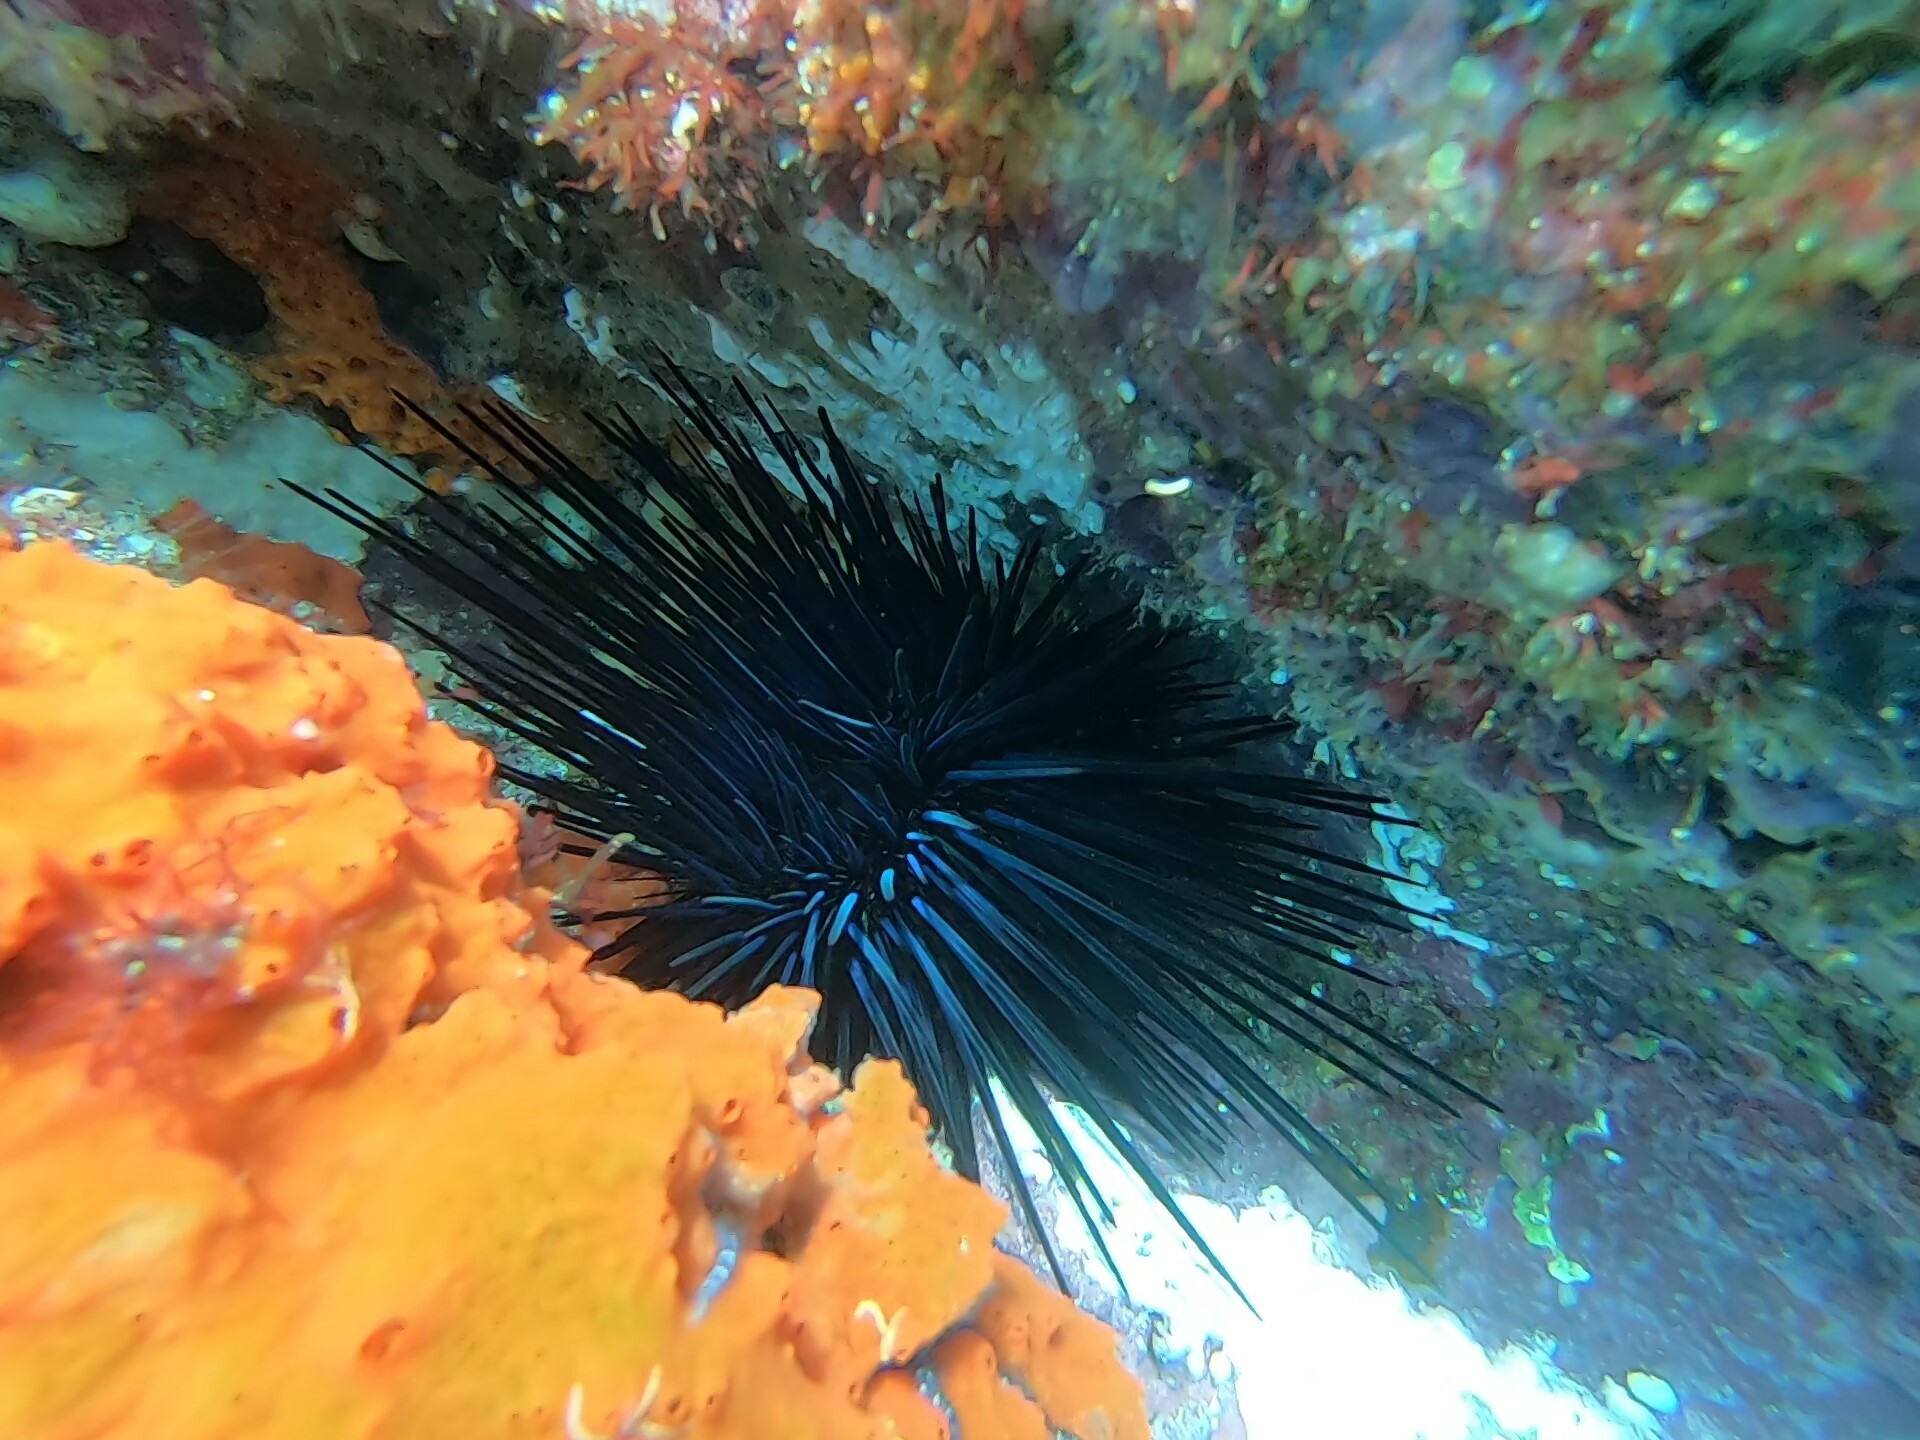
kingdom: Animalia
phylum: Echinodermata
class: Echinoidea
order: Diadematoida
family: Diadematidae
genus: Diadema
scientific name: Diadema mexicanum
